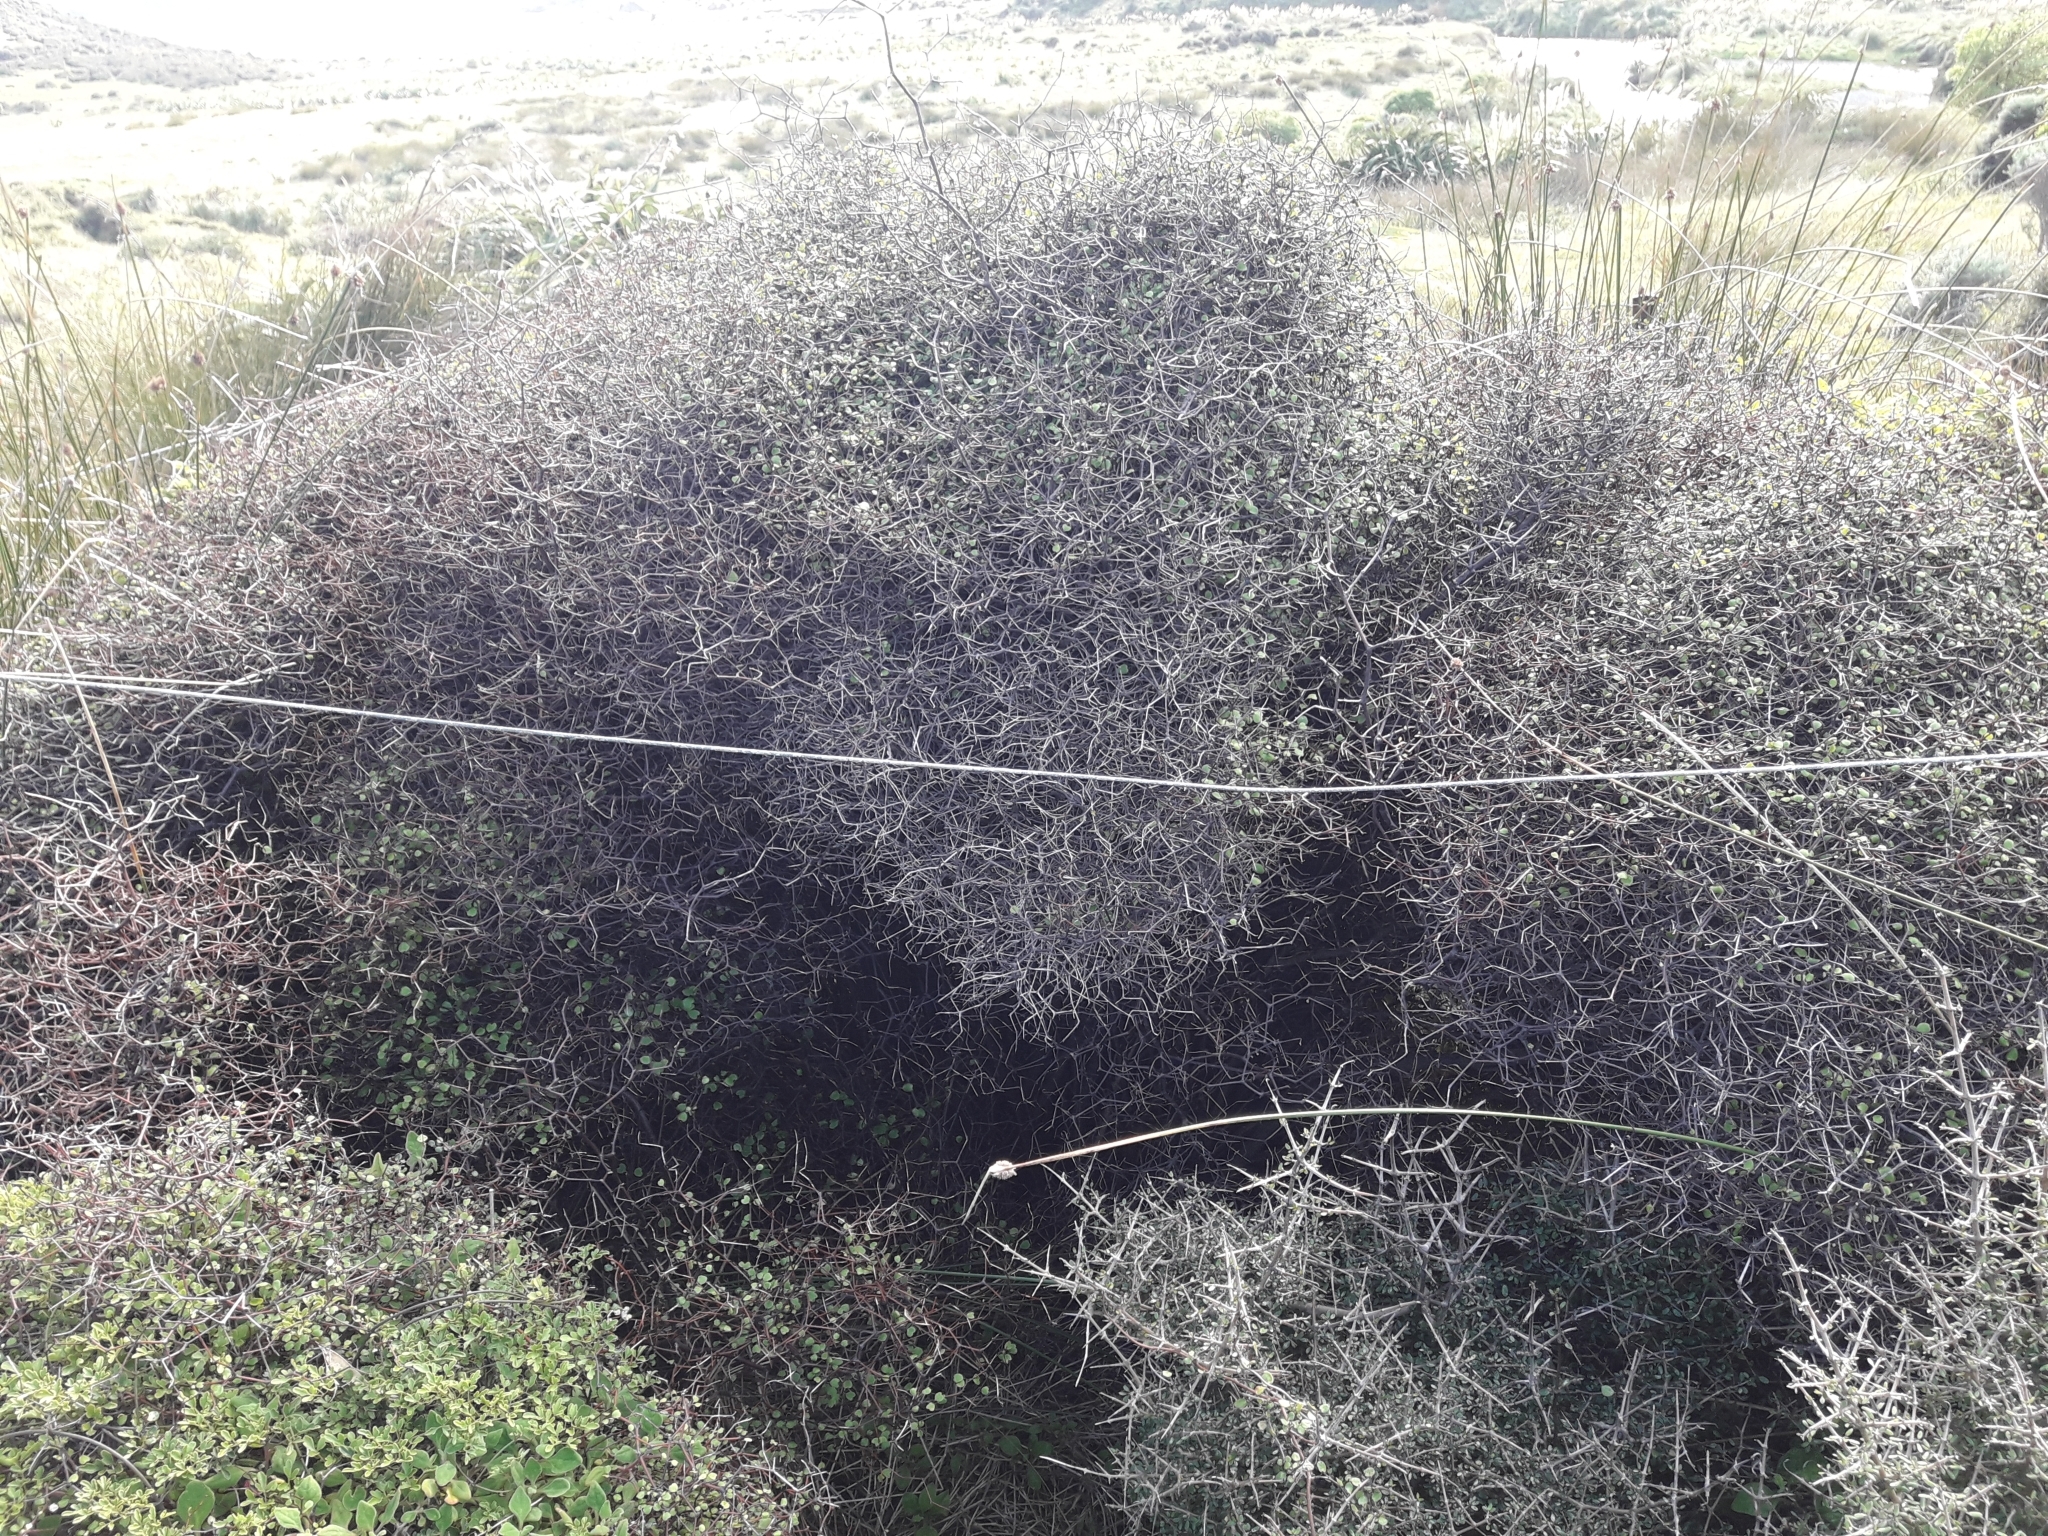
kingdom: Plantae
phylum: Tracheophyta
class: Magnoliopsida
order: Caryophyllales
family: Polygonaceae
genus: Muehlenbeckia
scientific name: Muehlenbeckia astonii
